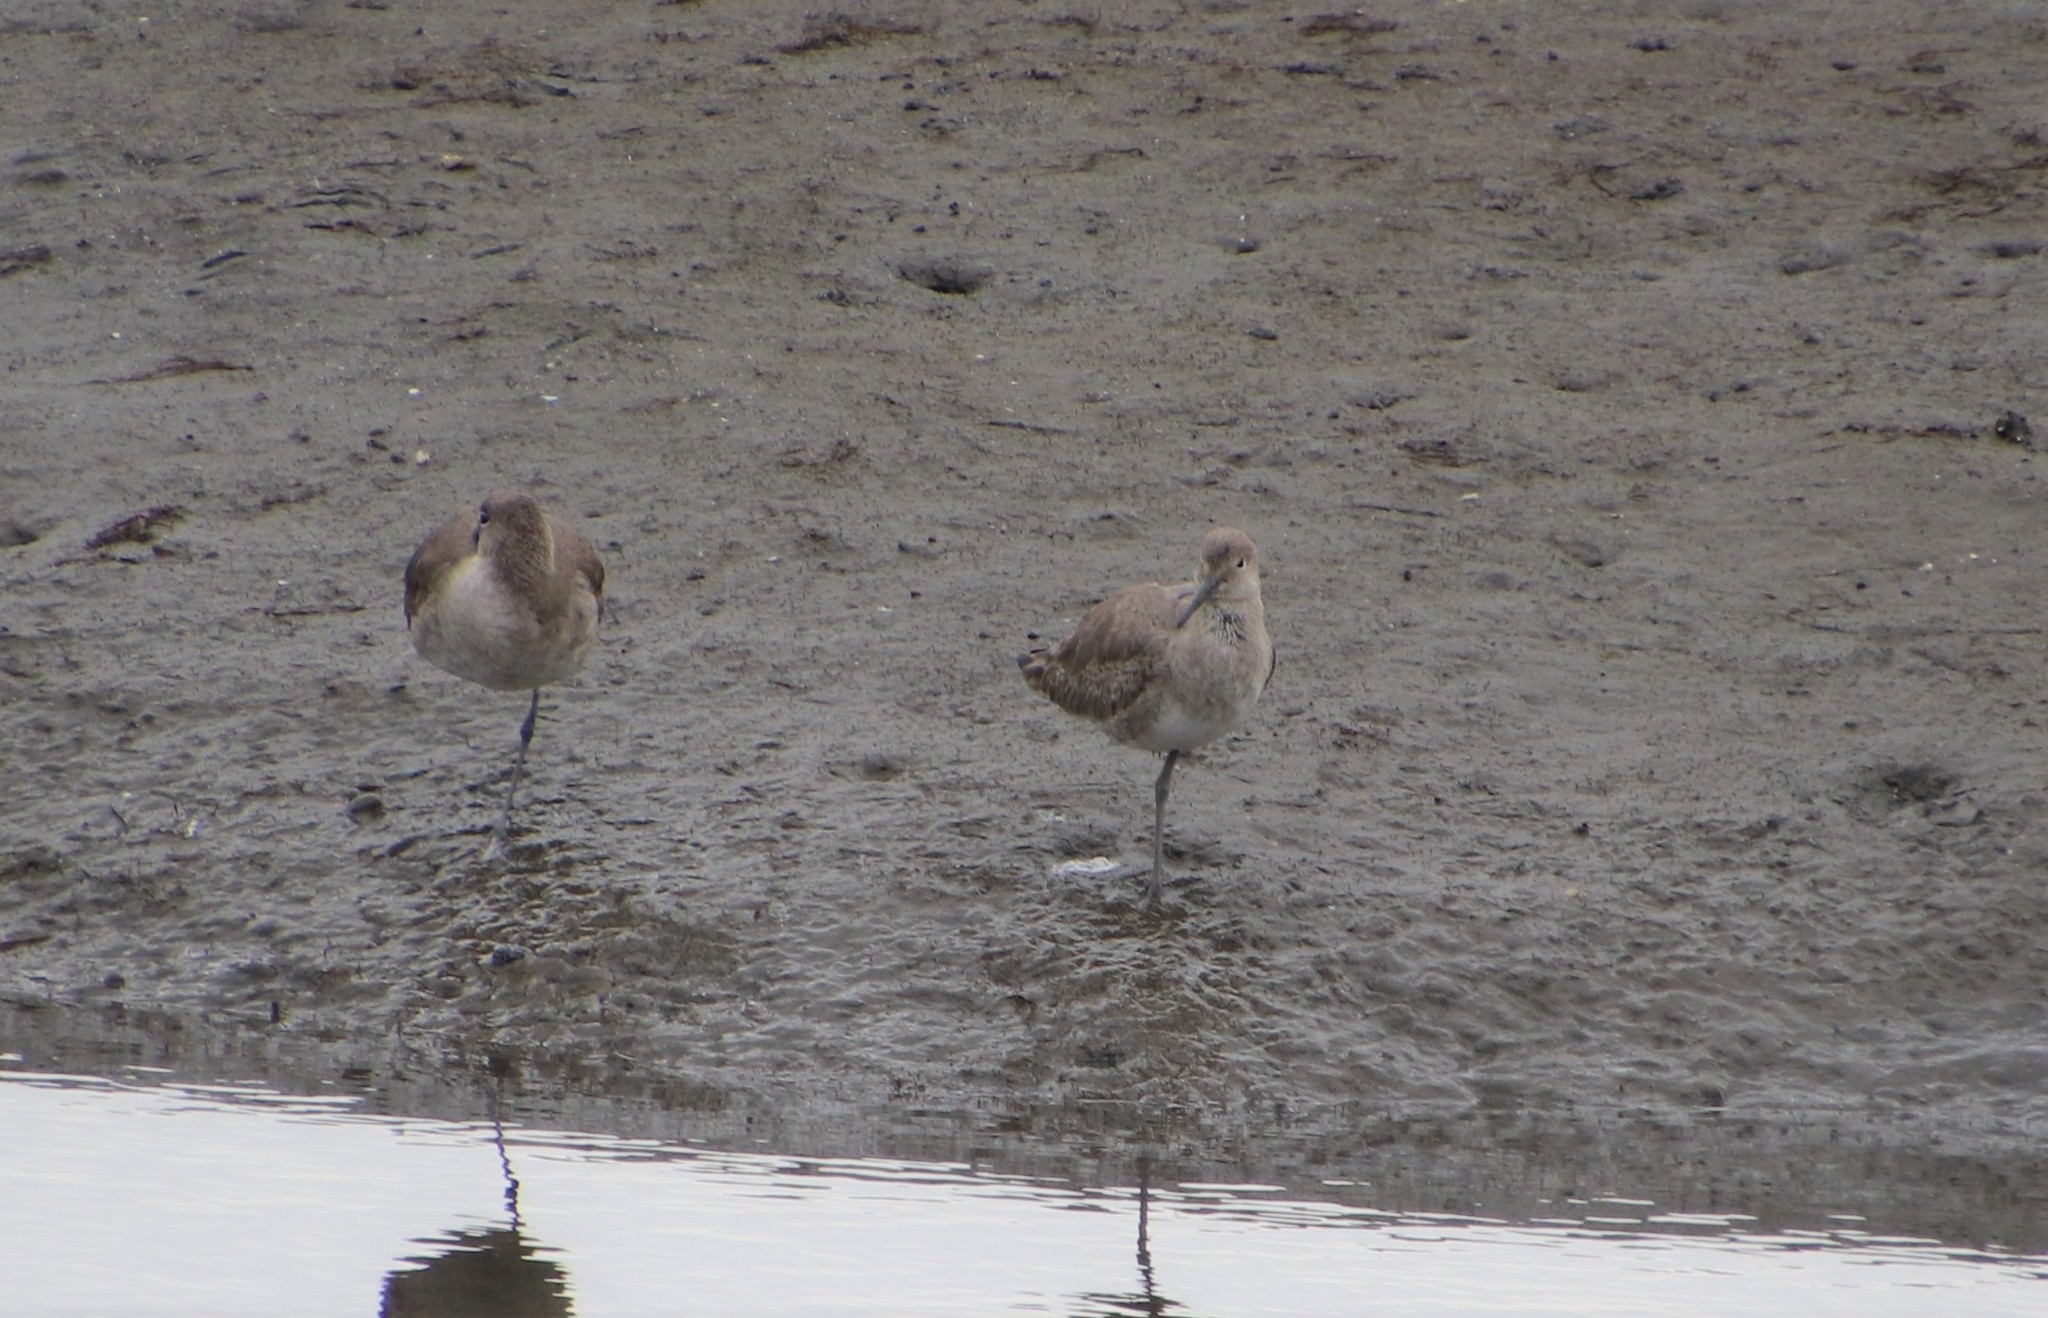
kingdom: Animalia
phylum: Chordata
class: Aves
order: Charadriiformes
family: Scolopacidae
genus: Tringa
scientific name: Tringa semipalmata
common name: Willet
